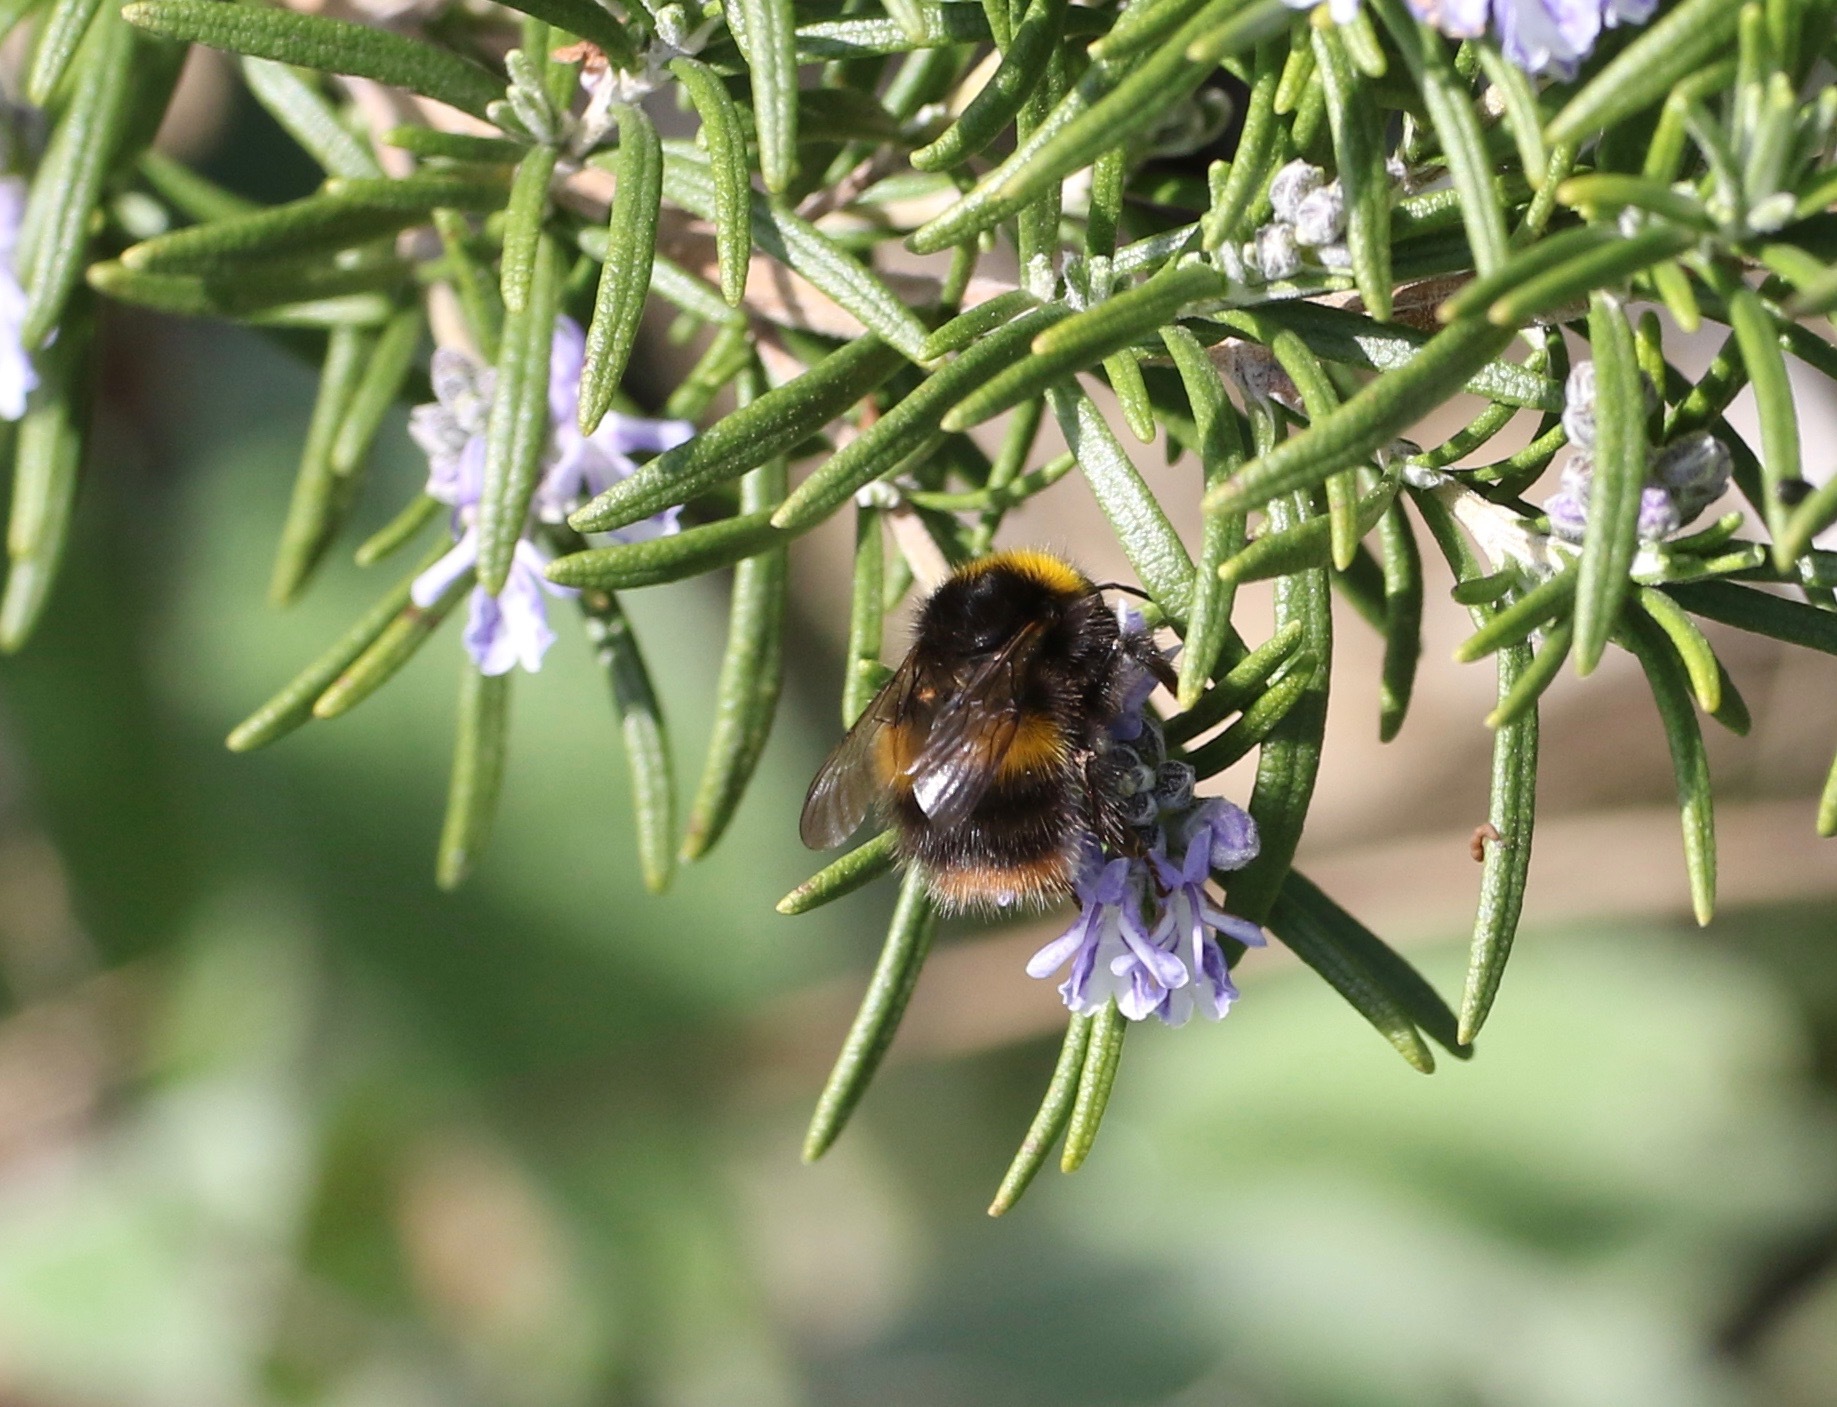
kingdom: Animalia
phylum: Arthropoda
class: Insecta
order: Hymenoptera
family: Apidae
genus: Bombus
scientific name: Bombus pratorum
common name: Early humble-bee
